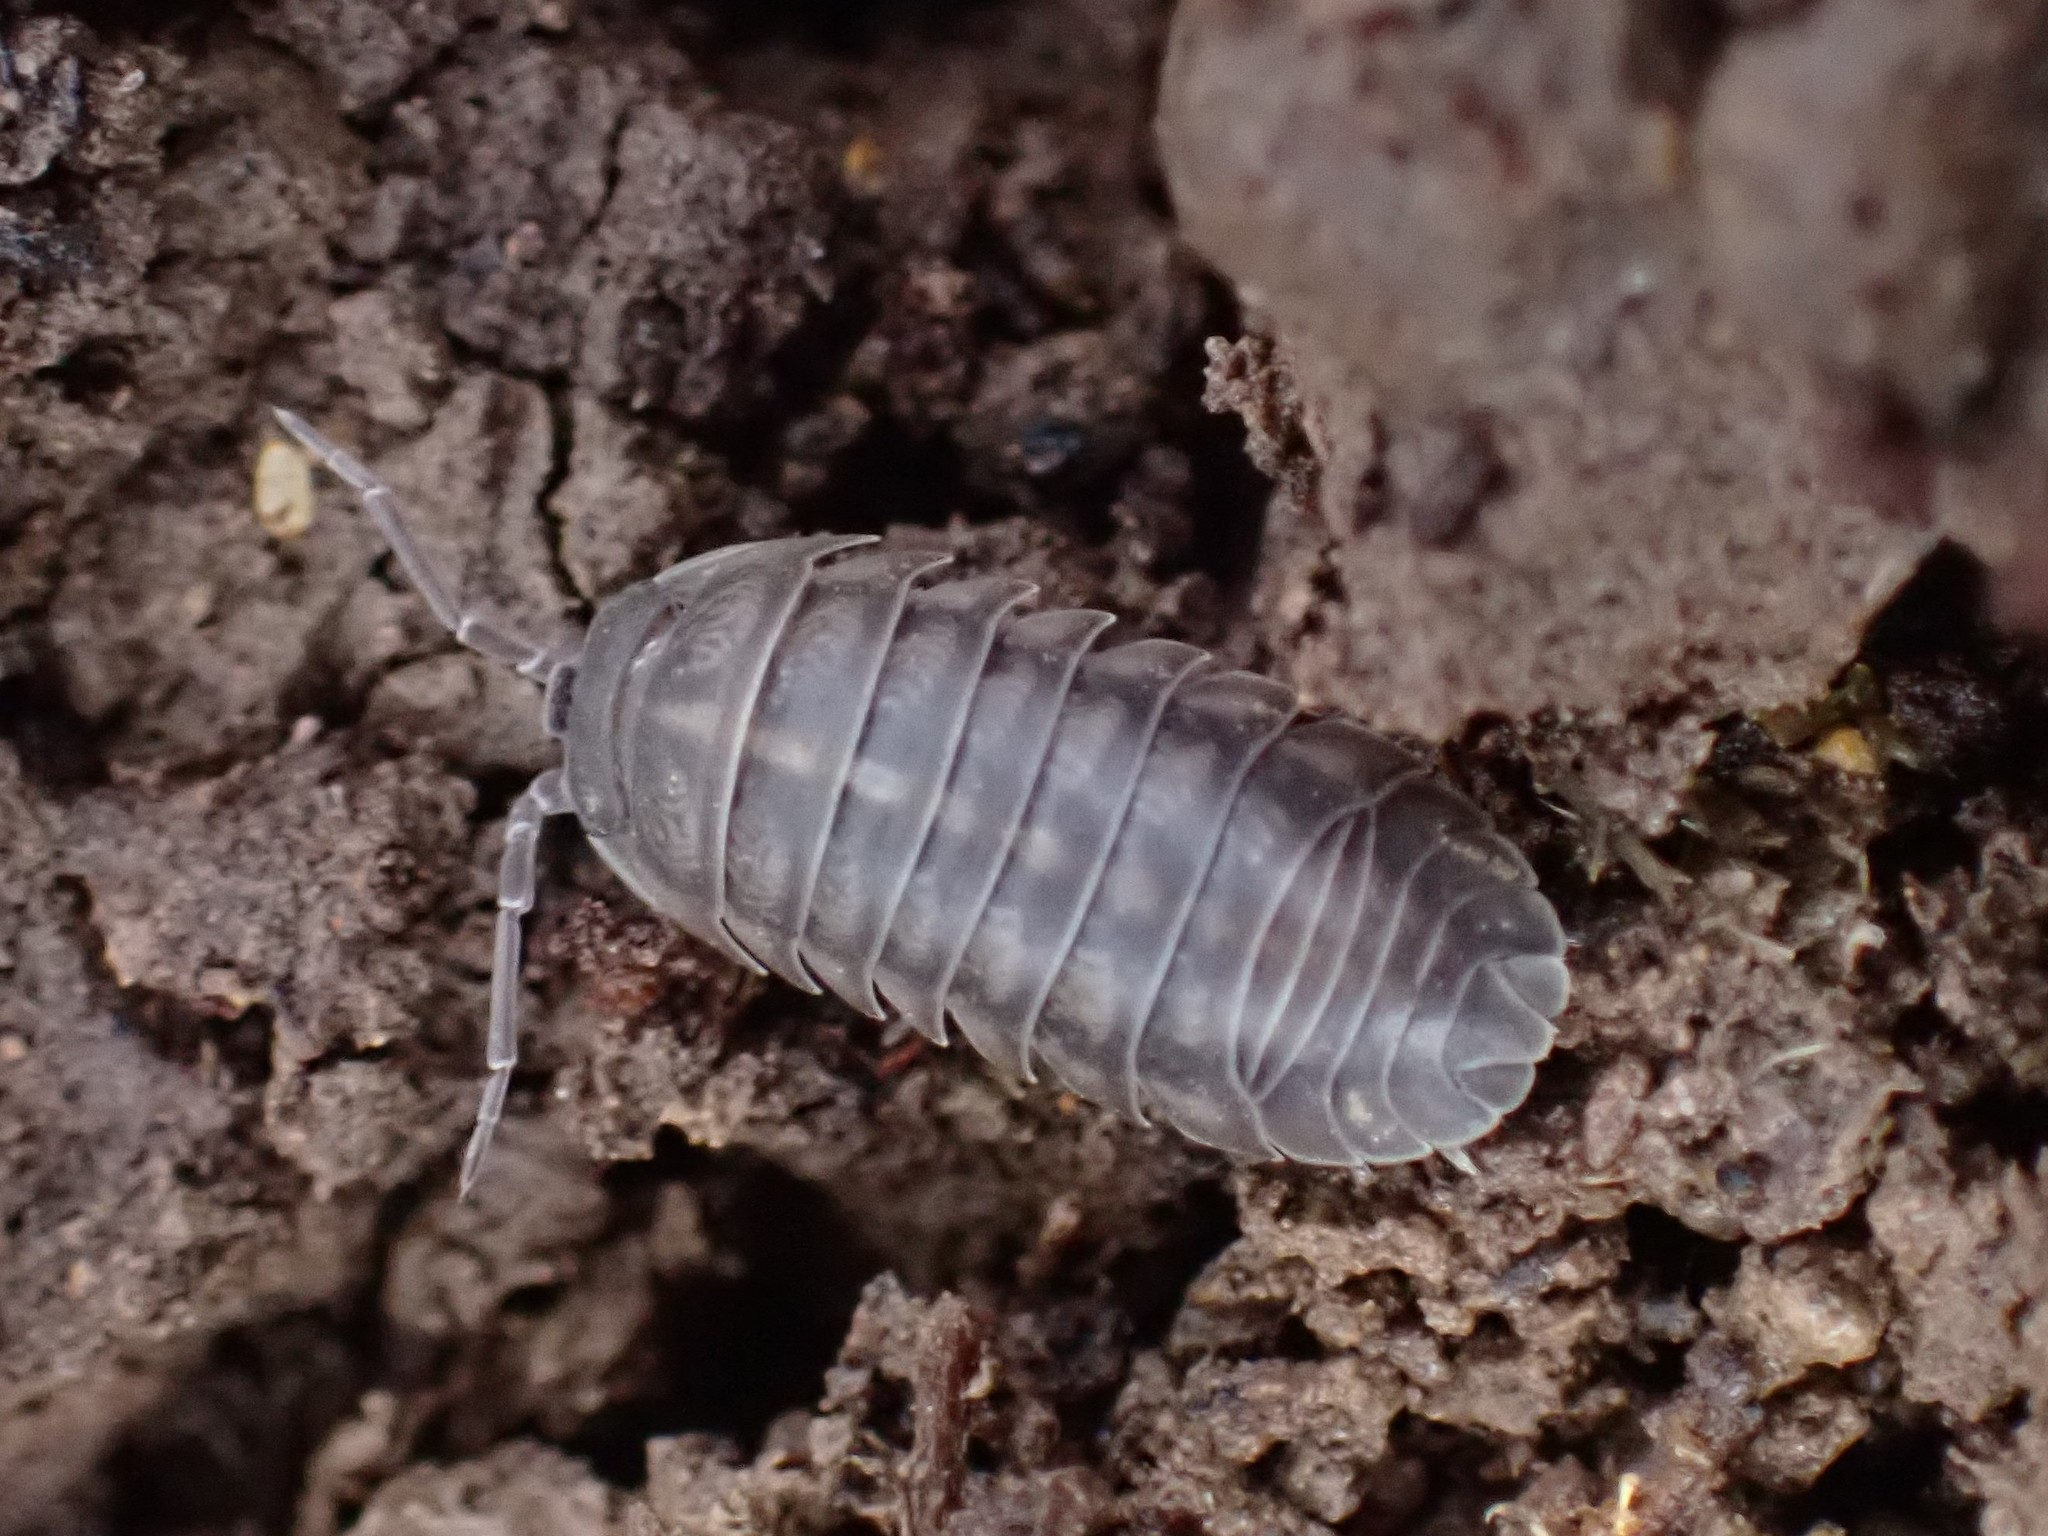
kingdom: Animalia
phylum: Arthropoda
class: Malacostraca
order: Isopoda
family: Armadillidiidae
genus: Armadillidium
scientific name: Armadillidium nasatum
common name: Isopod
